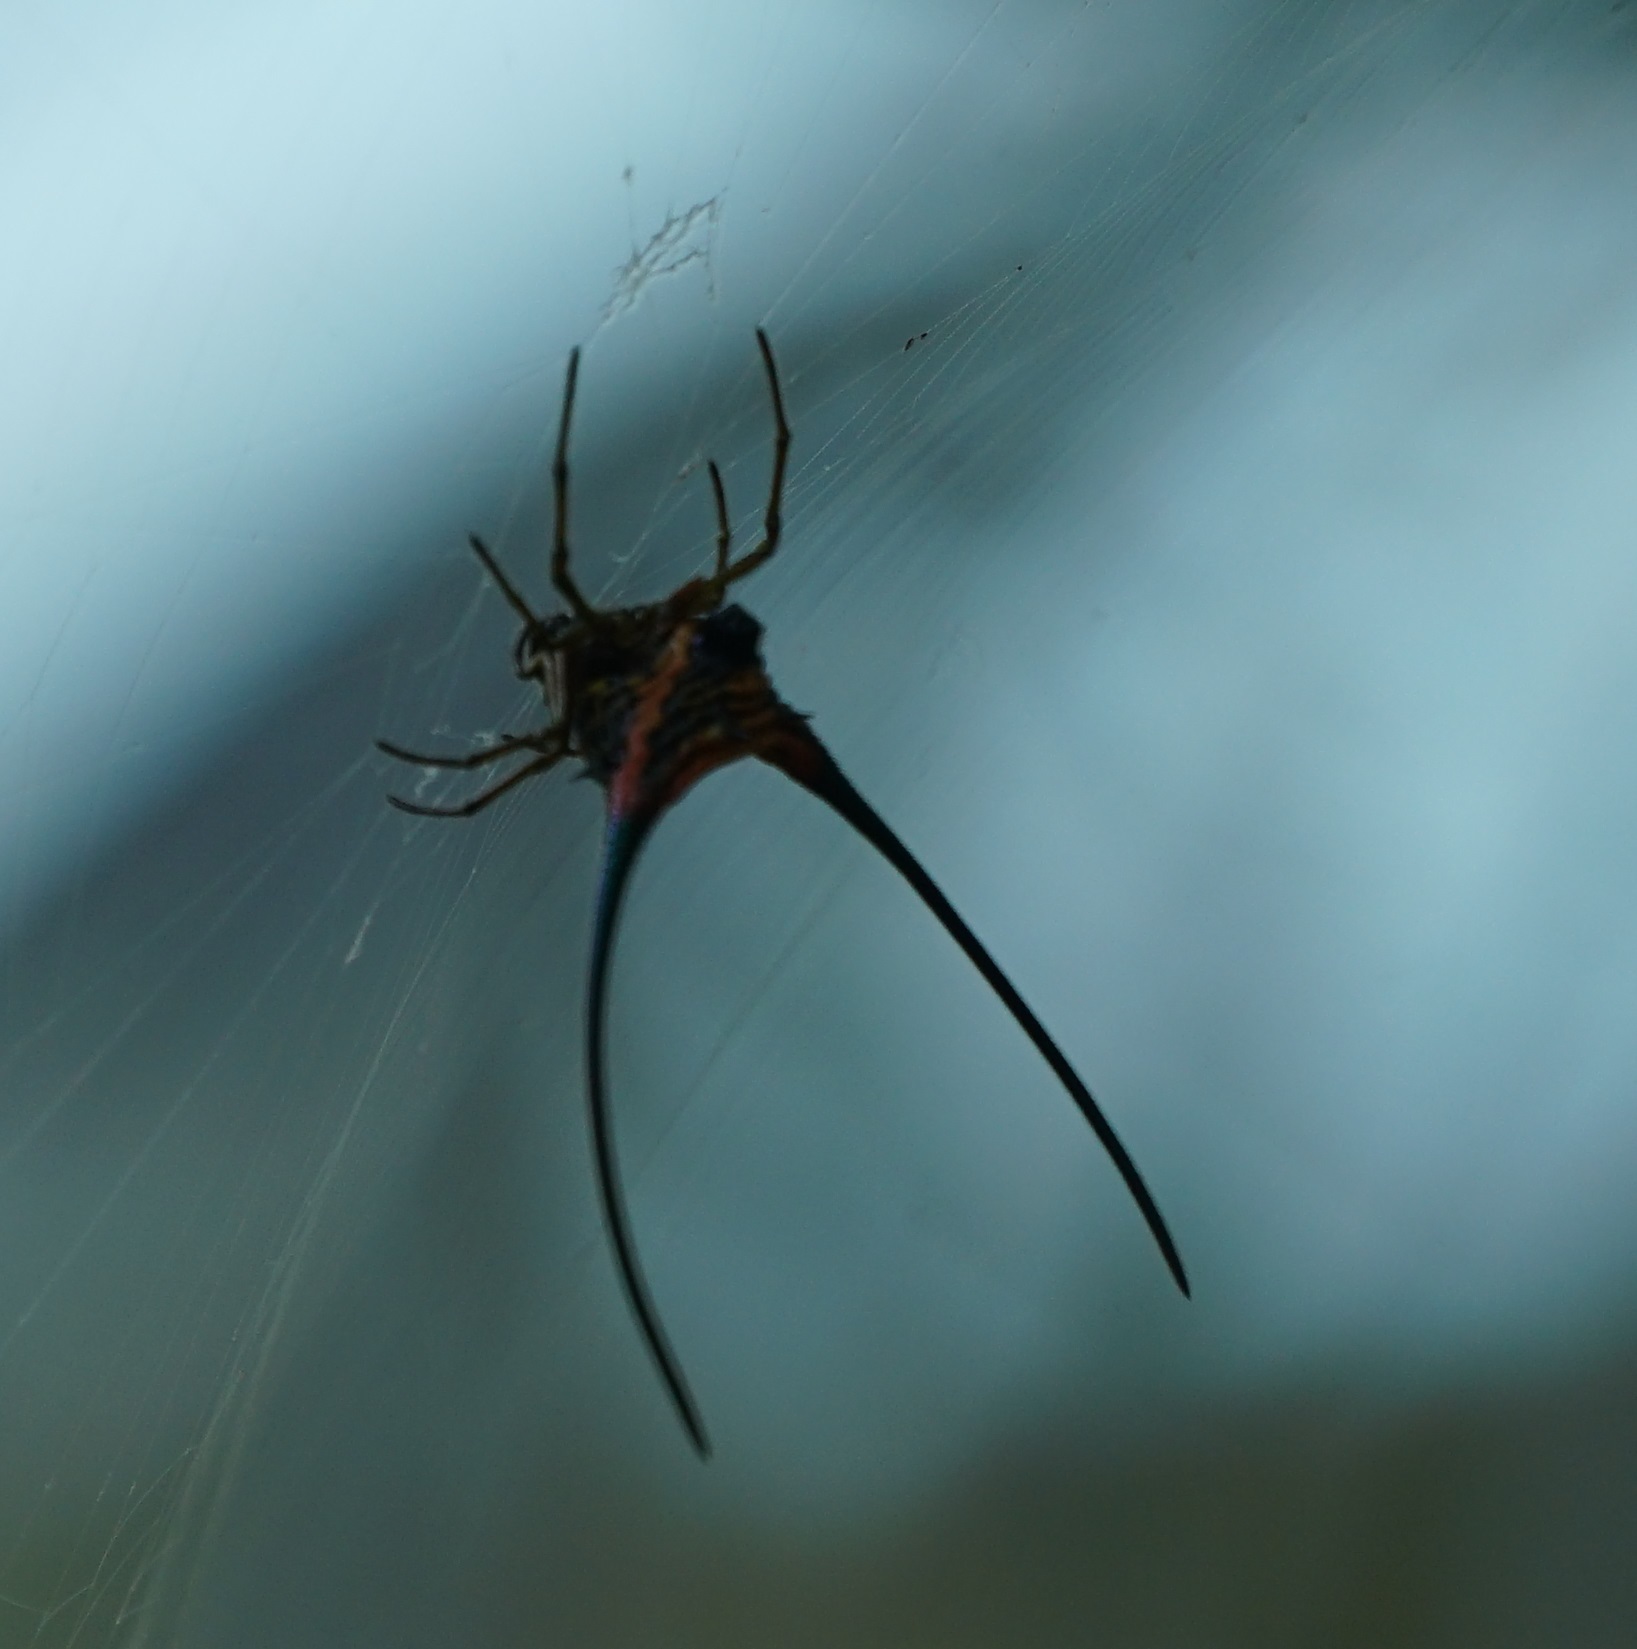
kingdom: Animalia
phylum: Arthropoda
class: Arachnida
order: Araneae
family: Araneidae
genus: Macracantha
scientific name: Macracantha arcuata
